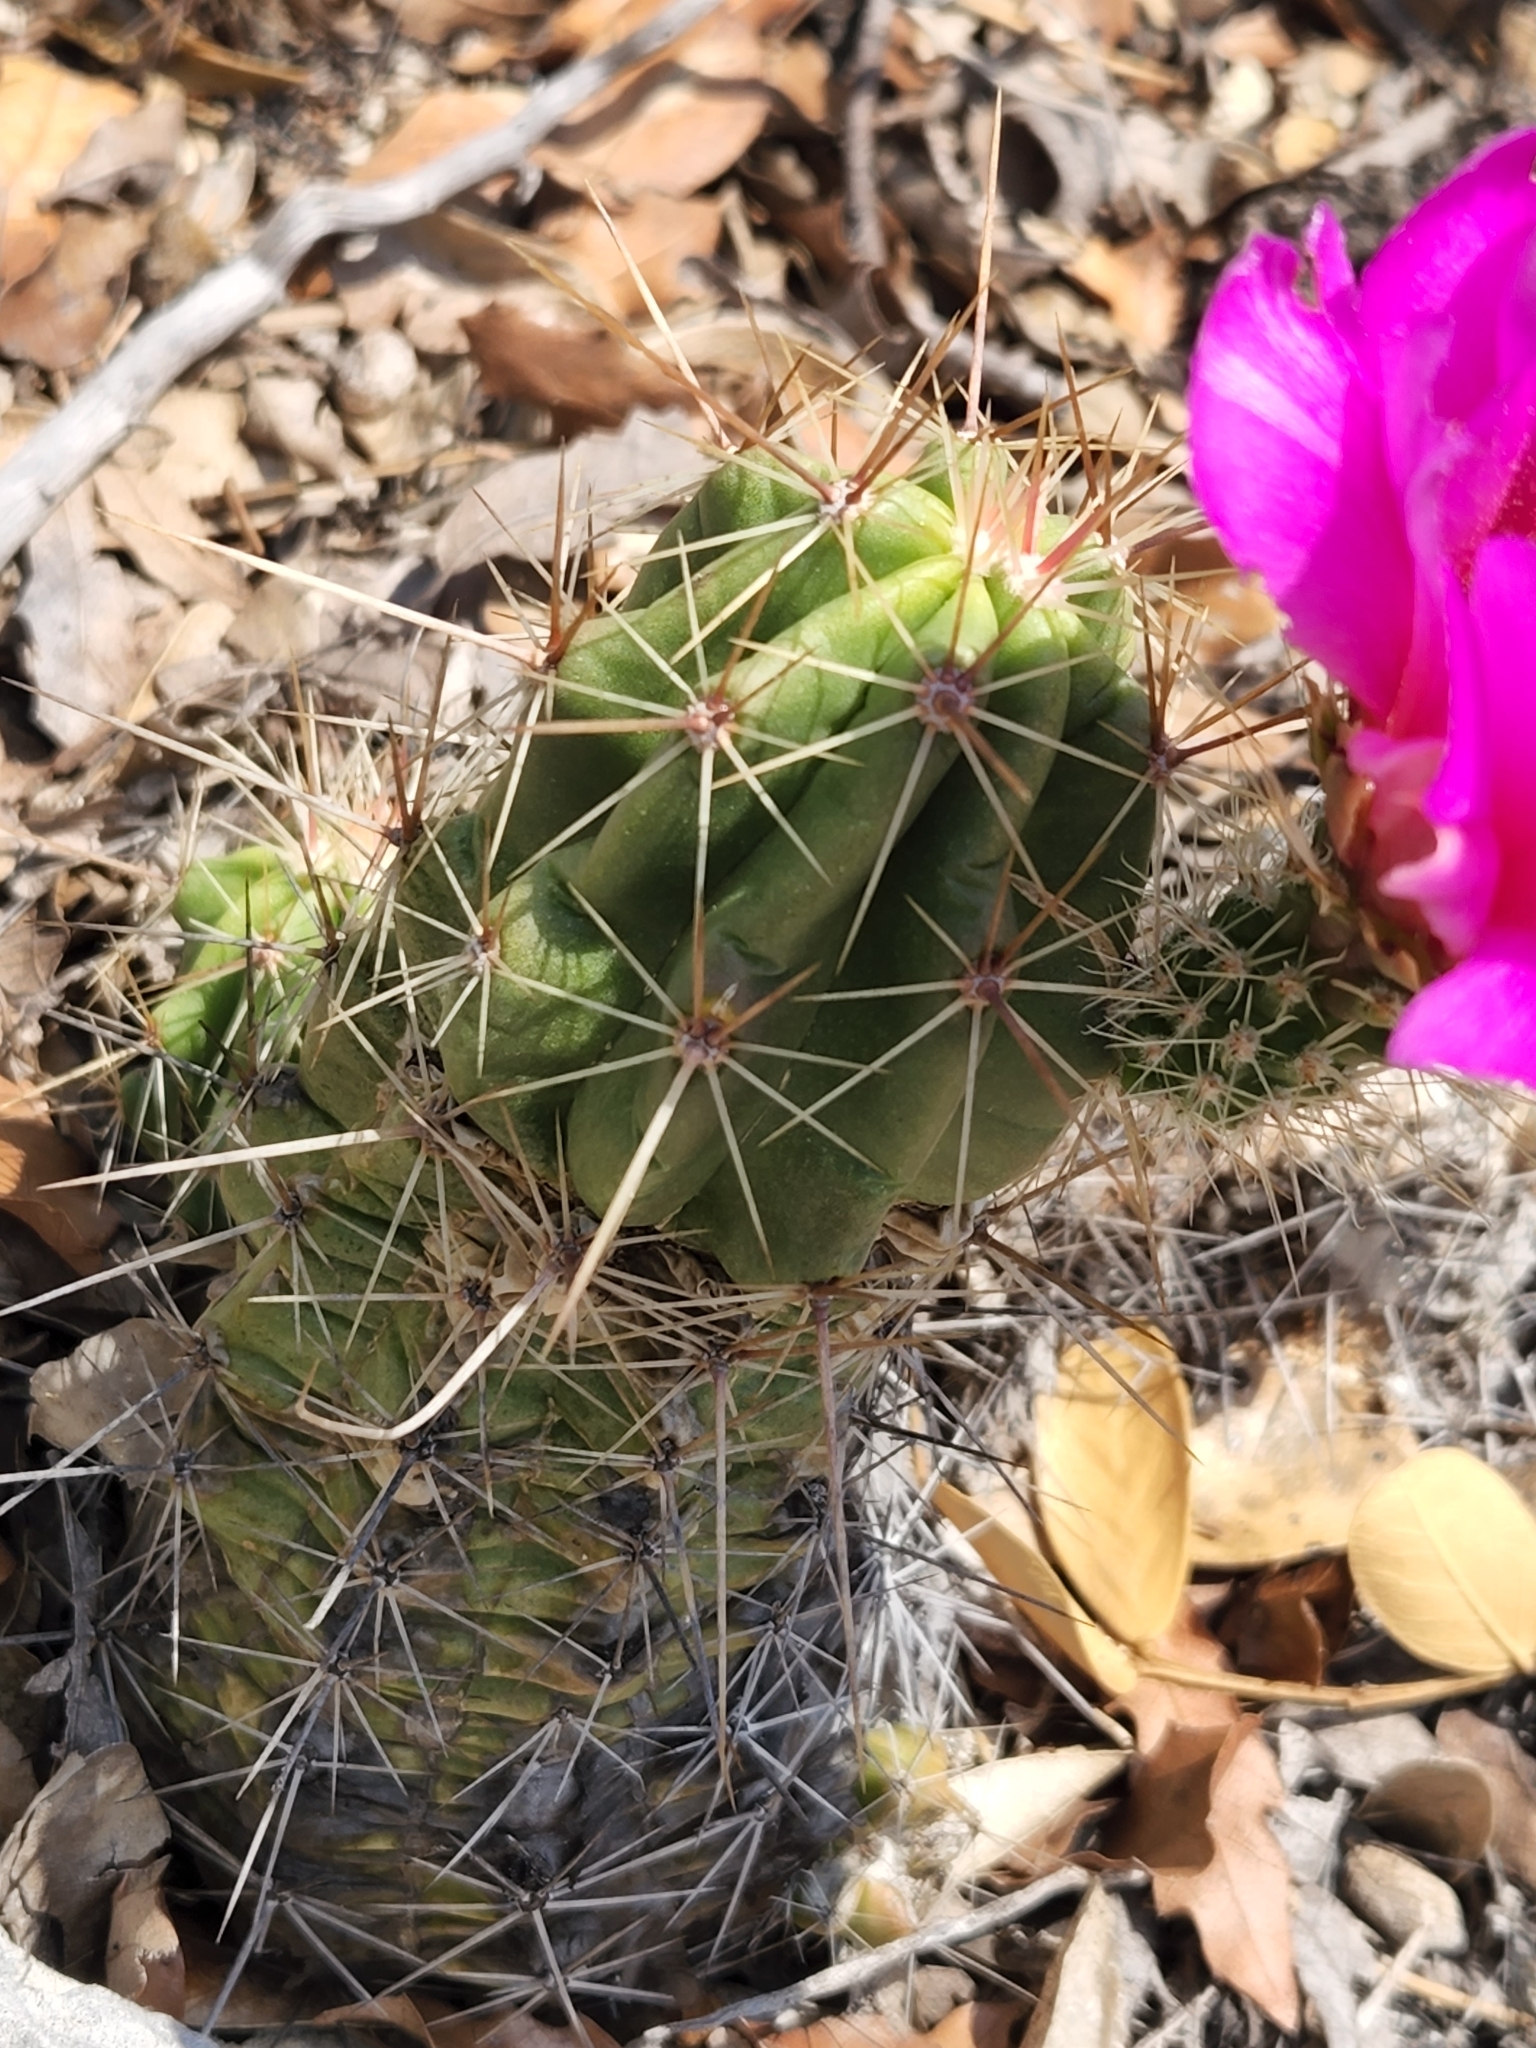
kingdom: Plantae
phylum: Tracheophyta
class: Magnoliopsida
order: Caryophyllales
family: Cactaceae
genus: Echinocereus
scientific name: Echinocereus enneacanthus
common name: Pitaya
